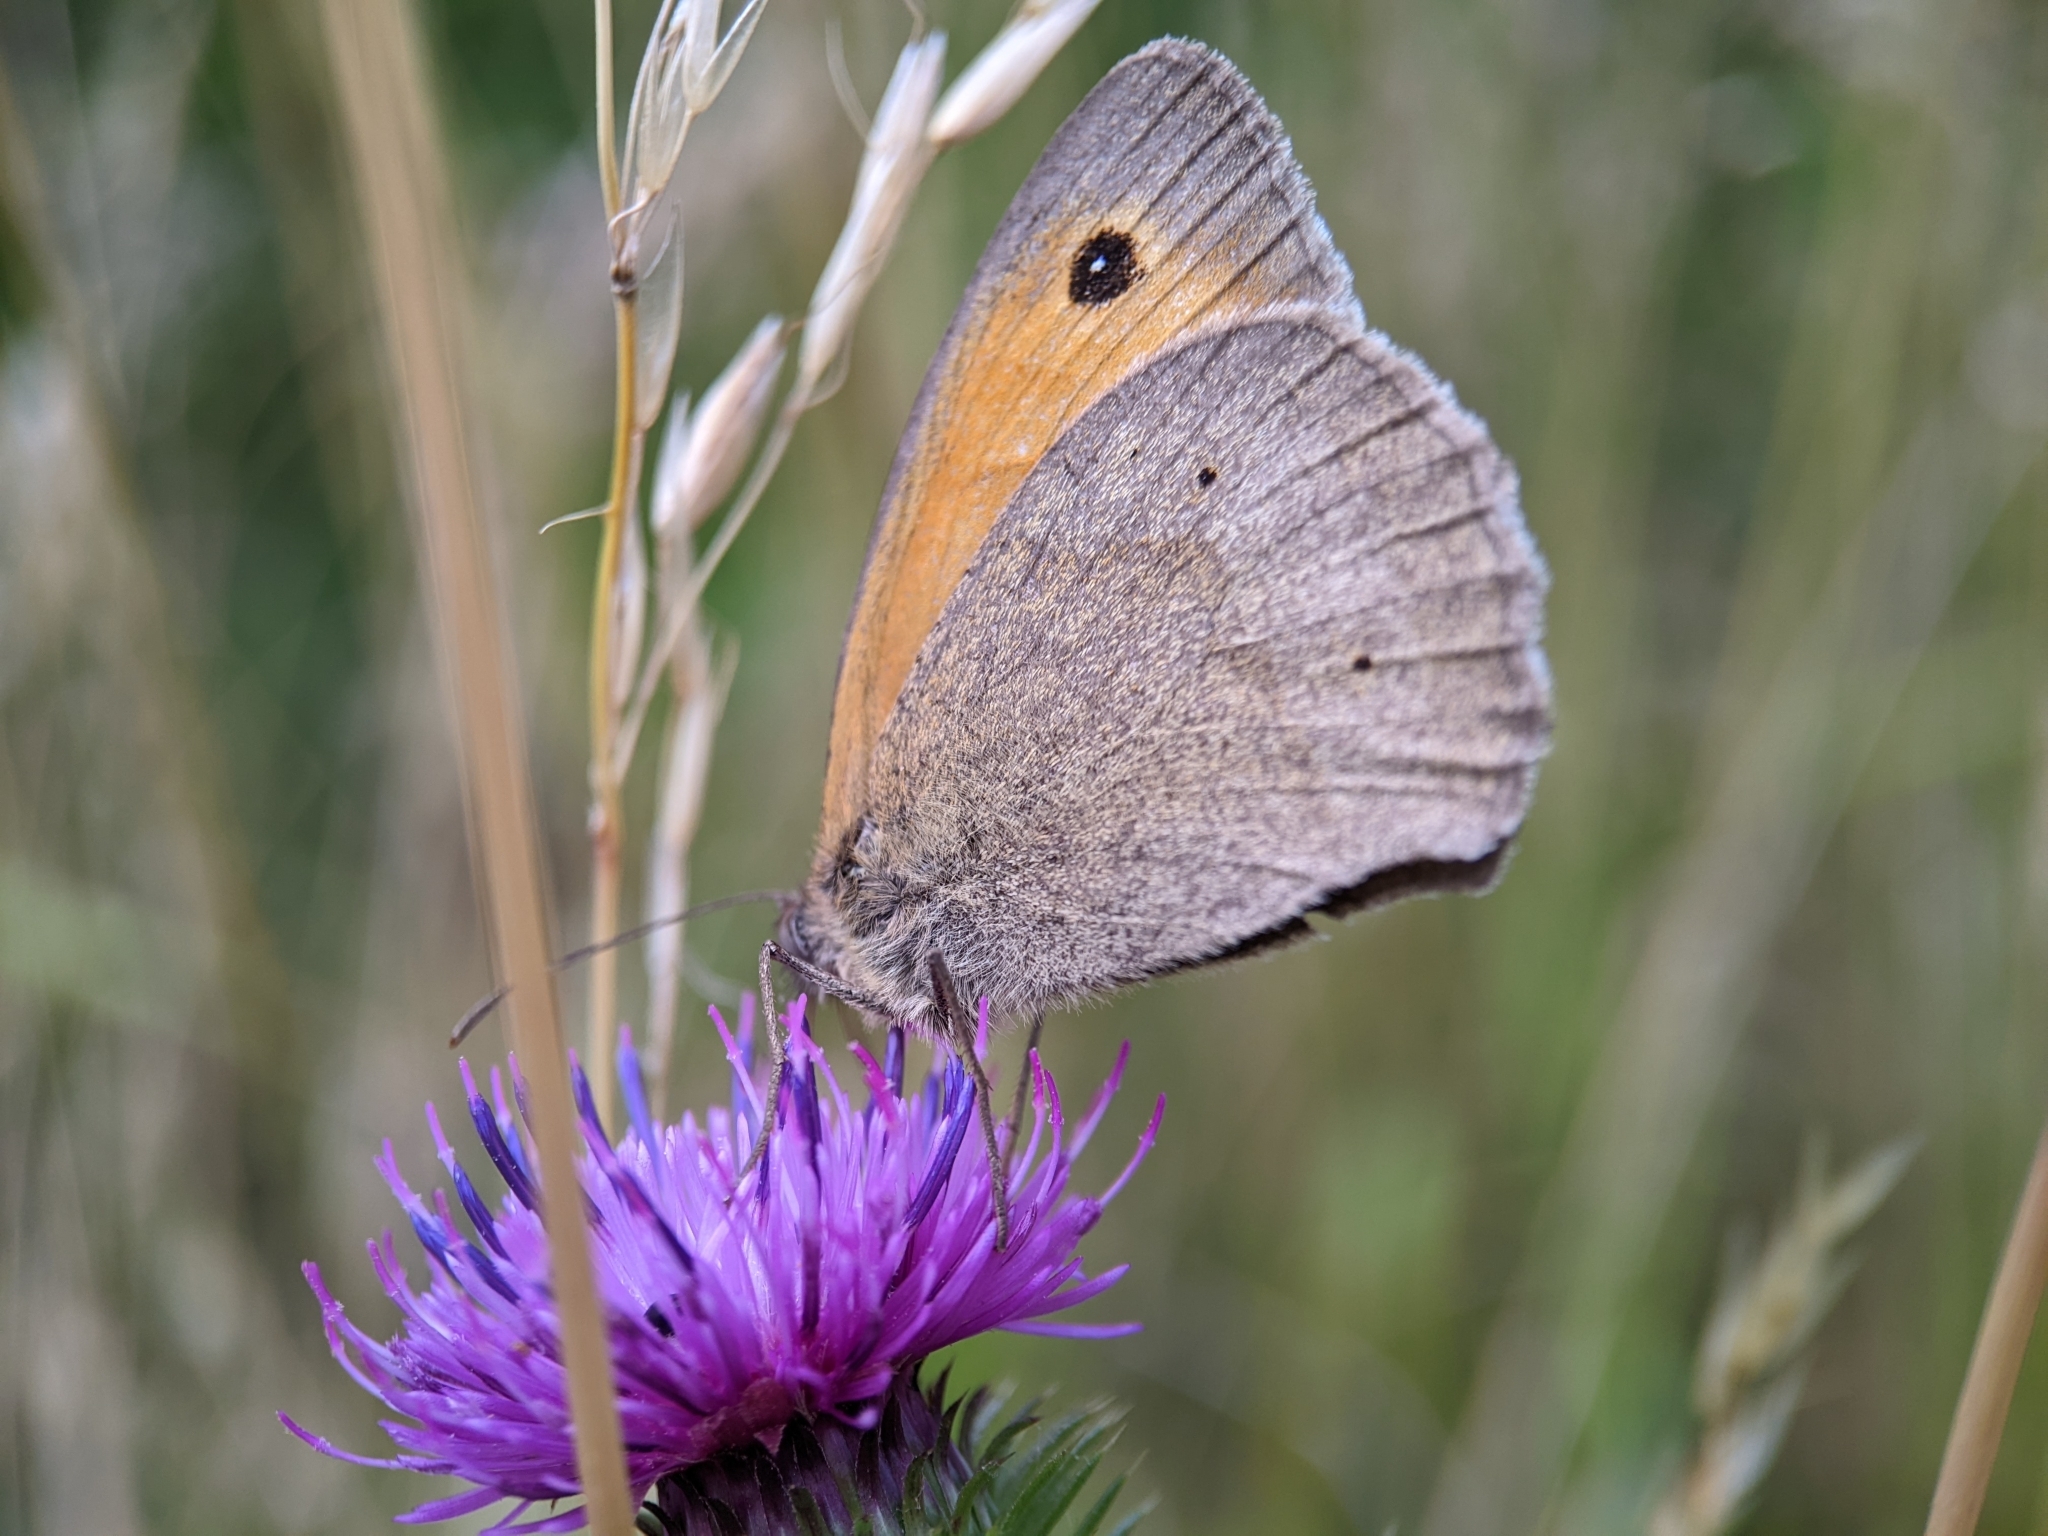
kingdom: Animalia
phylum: Arthropoda
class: Insecta
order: Lepidoptera
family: Nymphalidae
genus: Maniola
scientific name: Maniola jurtina
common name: Meadow brown
